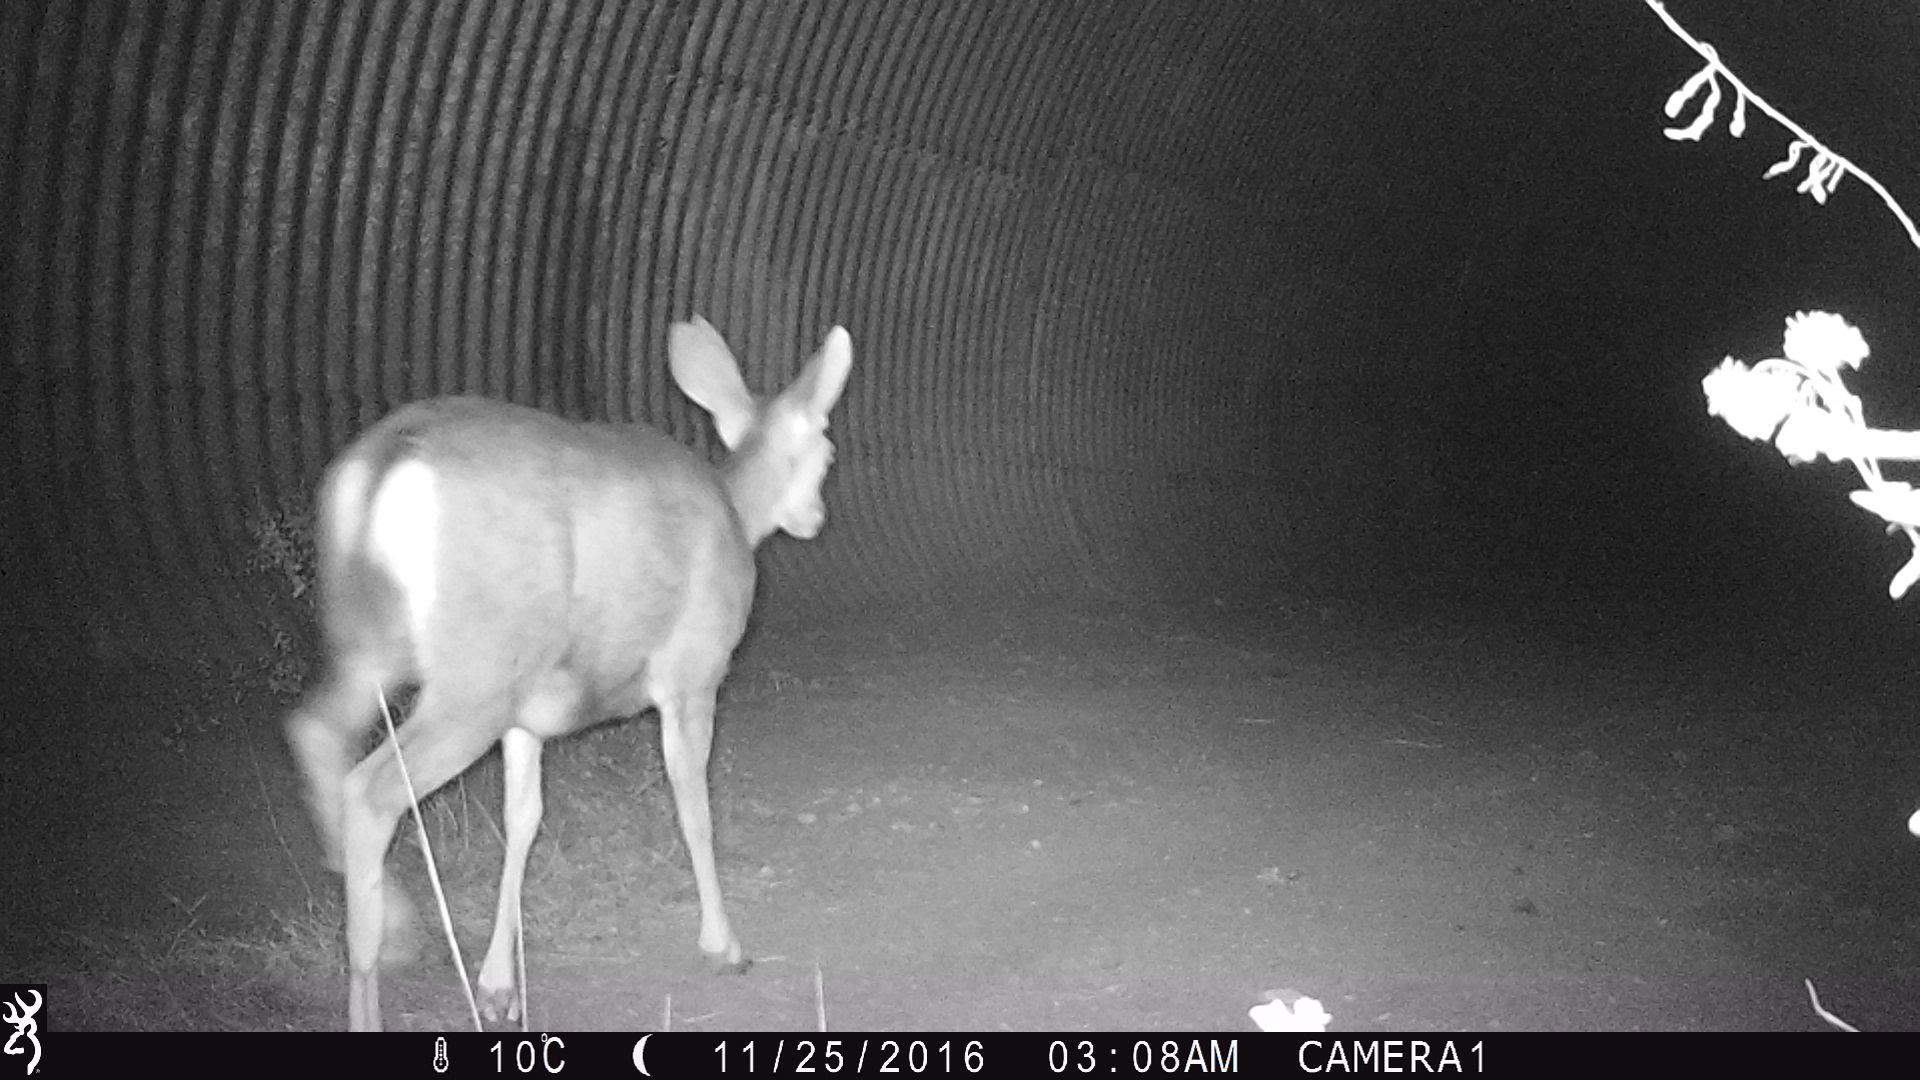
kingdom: Animalia
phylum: Chordata
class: Mammalia
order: Artiodactyla
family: Cervidae
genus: Odocoileus
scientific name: Odocoileus hemionus
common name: Mule deer
